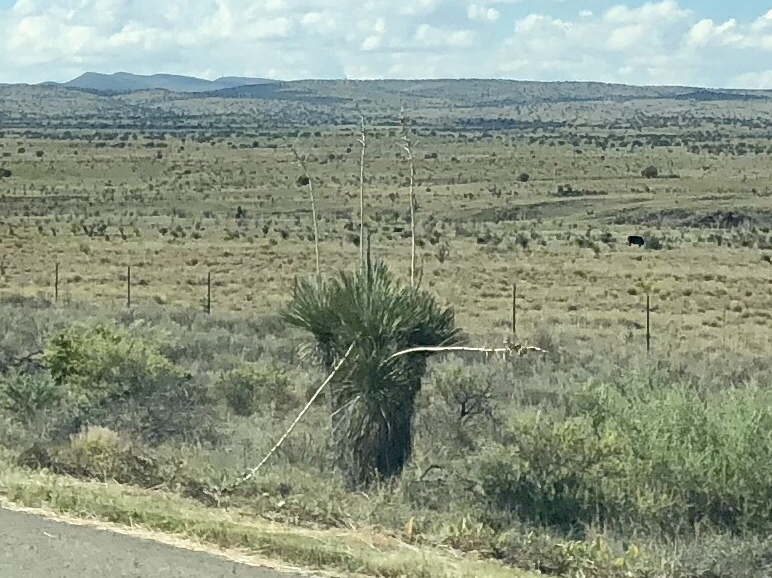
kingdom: Plantae
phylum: Tracheophyta
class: Liliopsida
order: Asparagales
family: Asparagaceae
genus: Yucca
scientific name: Yucca elata
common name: Palmella
